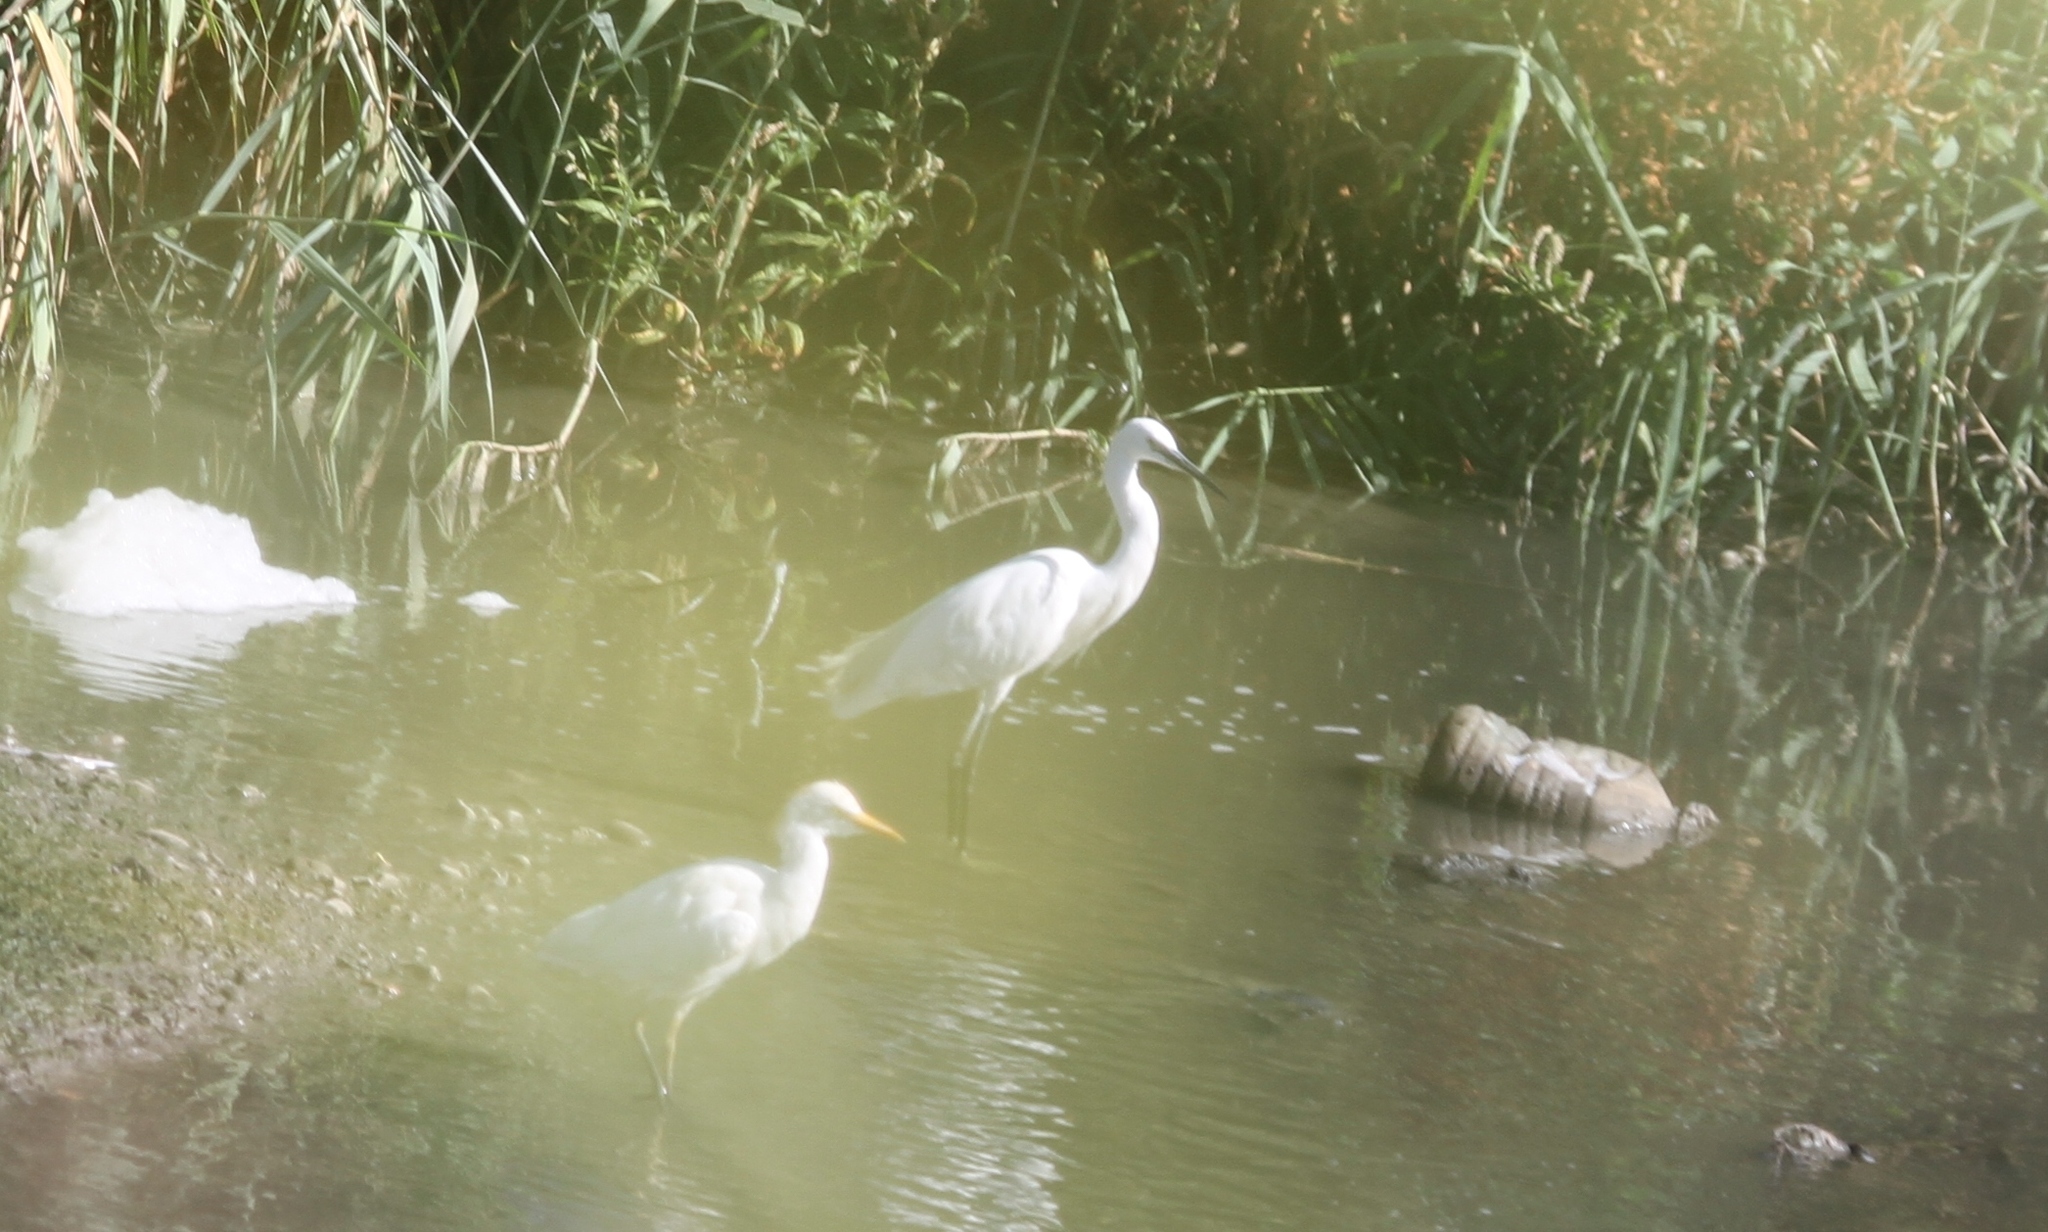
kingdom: Animalia
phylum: Chordata
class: Aves
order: Pelecaniformes
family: Ardeidae
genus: Egretta
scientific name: Egretta garzetta
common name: Little egret
